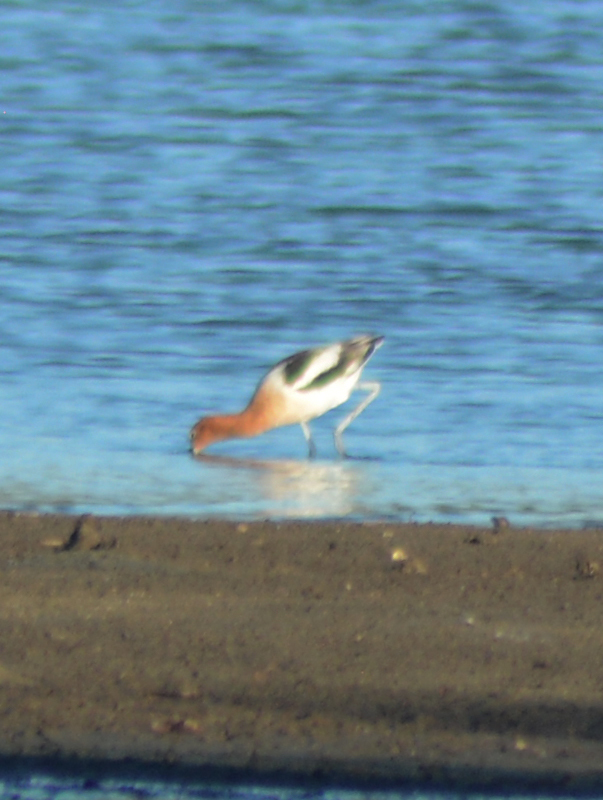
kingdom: Animalia
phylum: Chordata
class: Aves
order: Charadriiformes
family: Recurvirostridae
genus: Recurvirostra
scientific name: Recurvirostra americana
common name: American avocet
